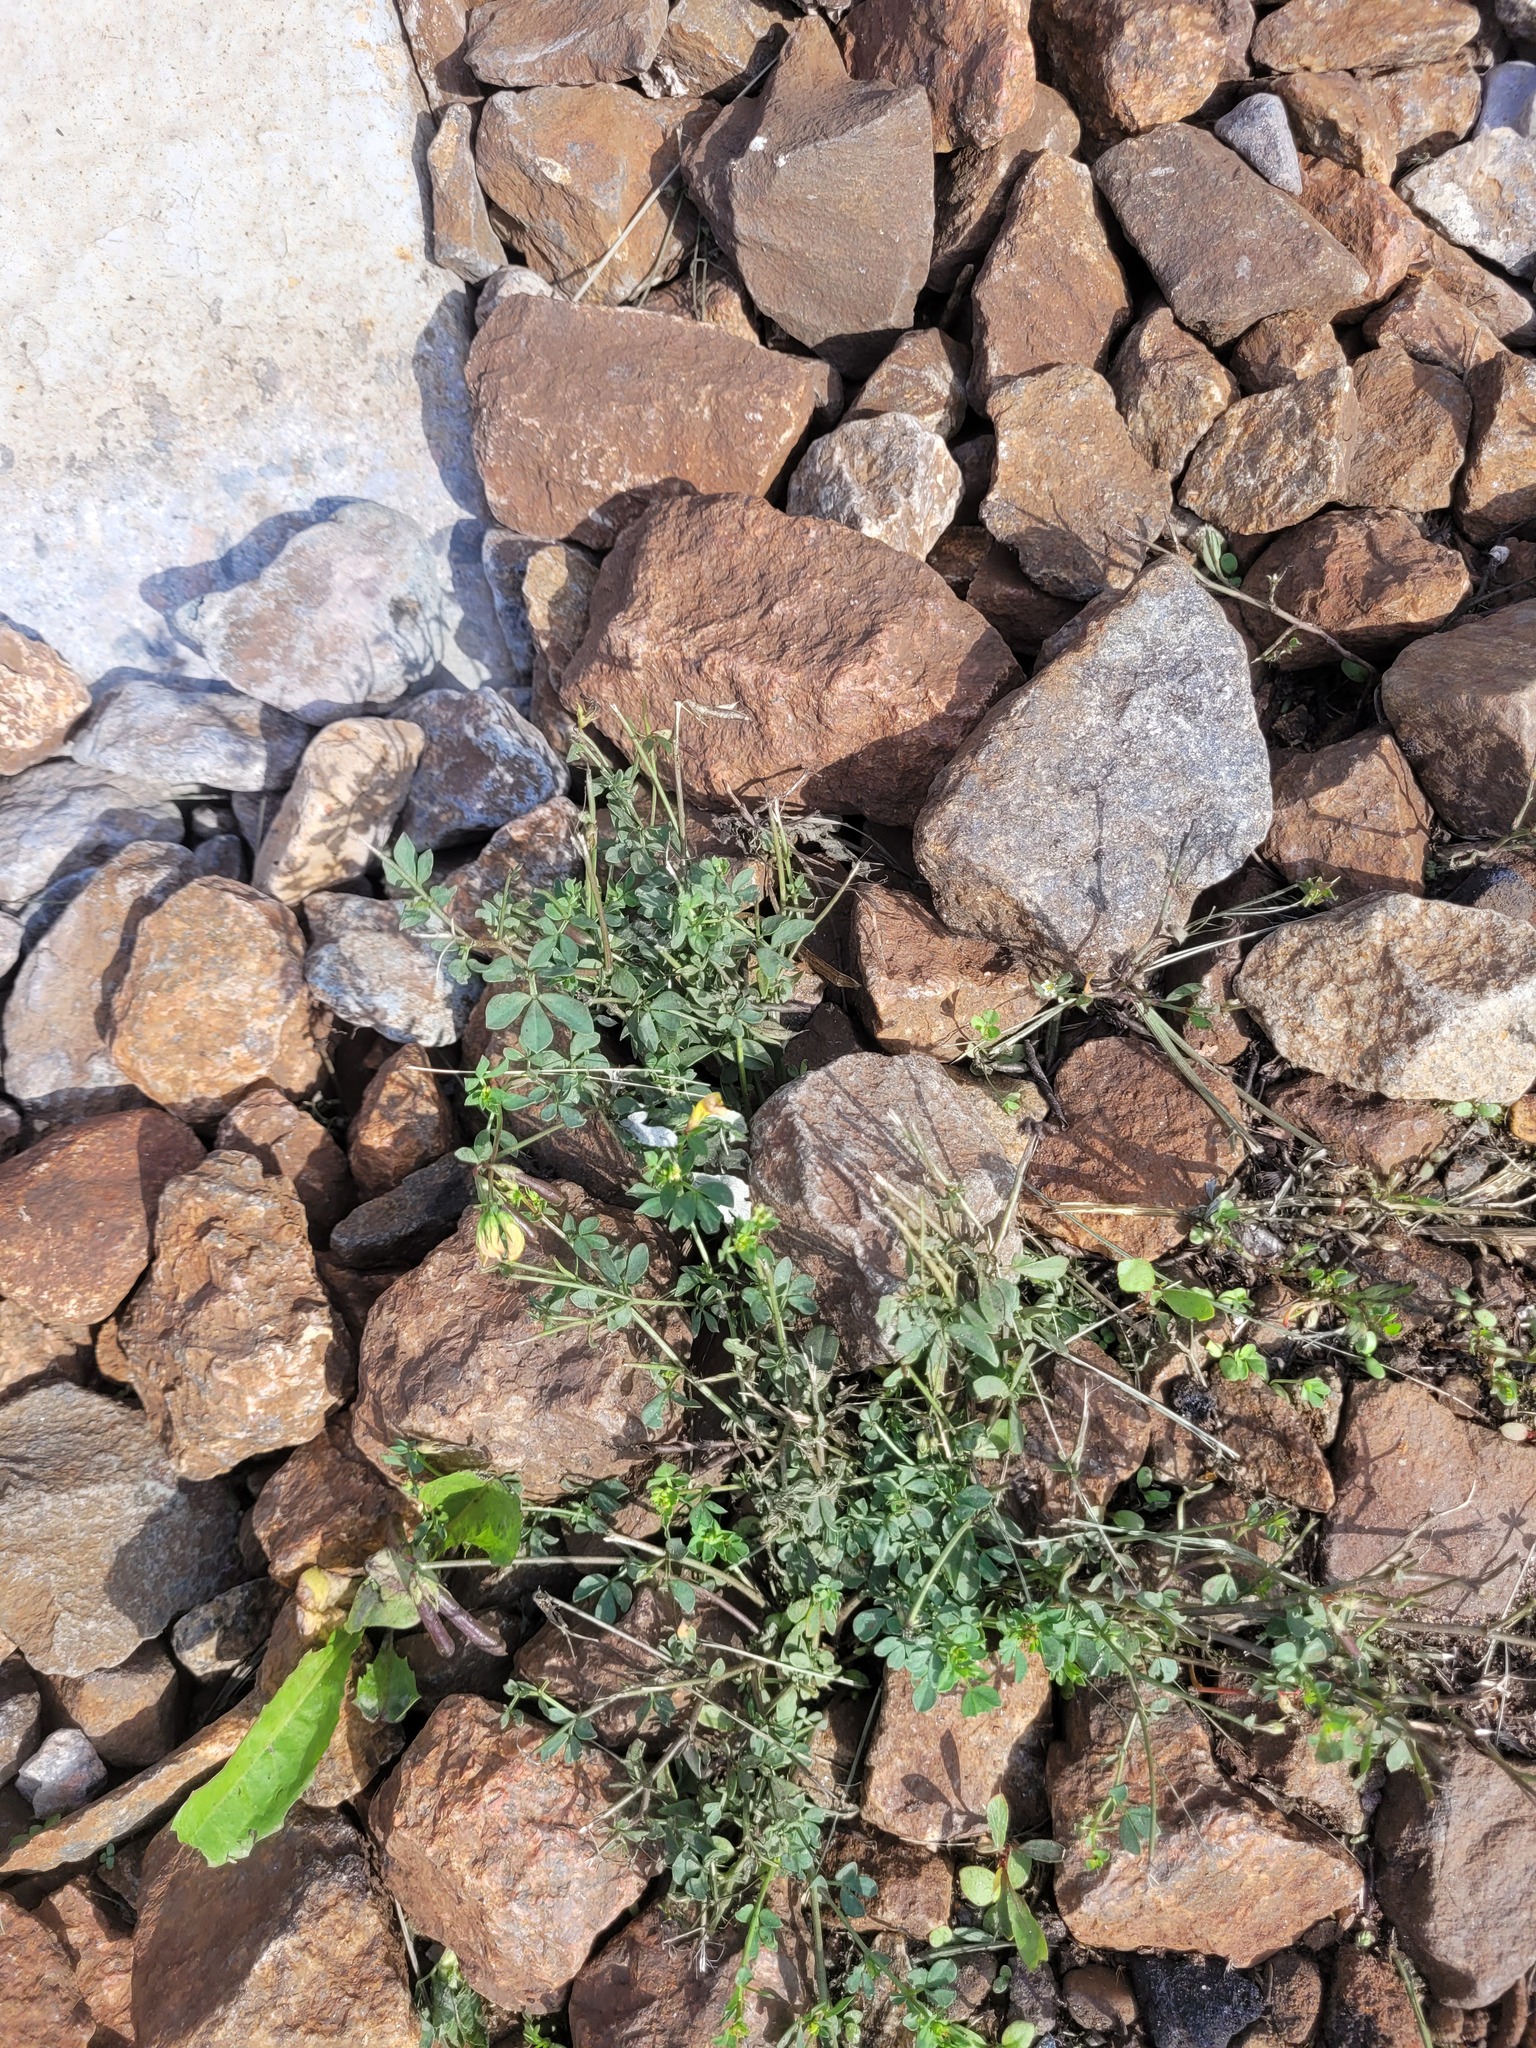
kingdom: Plantae
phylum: Tracheophyta
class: Magnoliopsida
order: Fabales
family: Fabaceae
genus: Lotus
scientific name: Lotus corniculatus
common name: Common bird's-foot-trefoil
